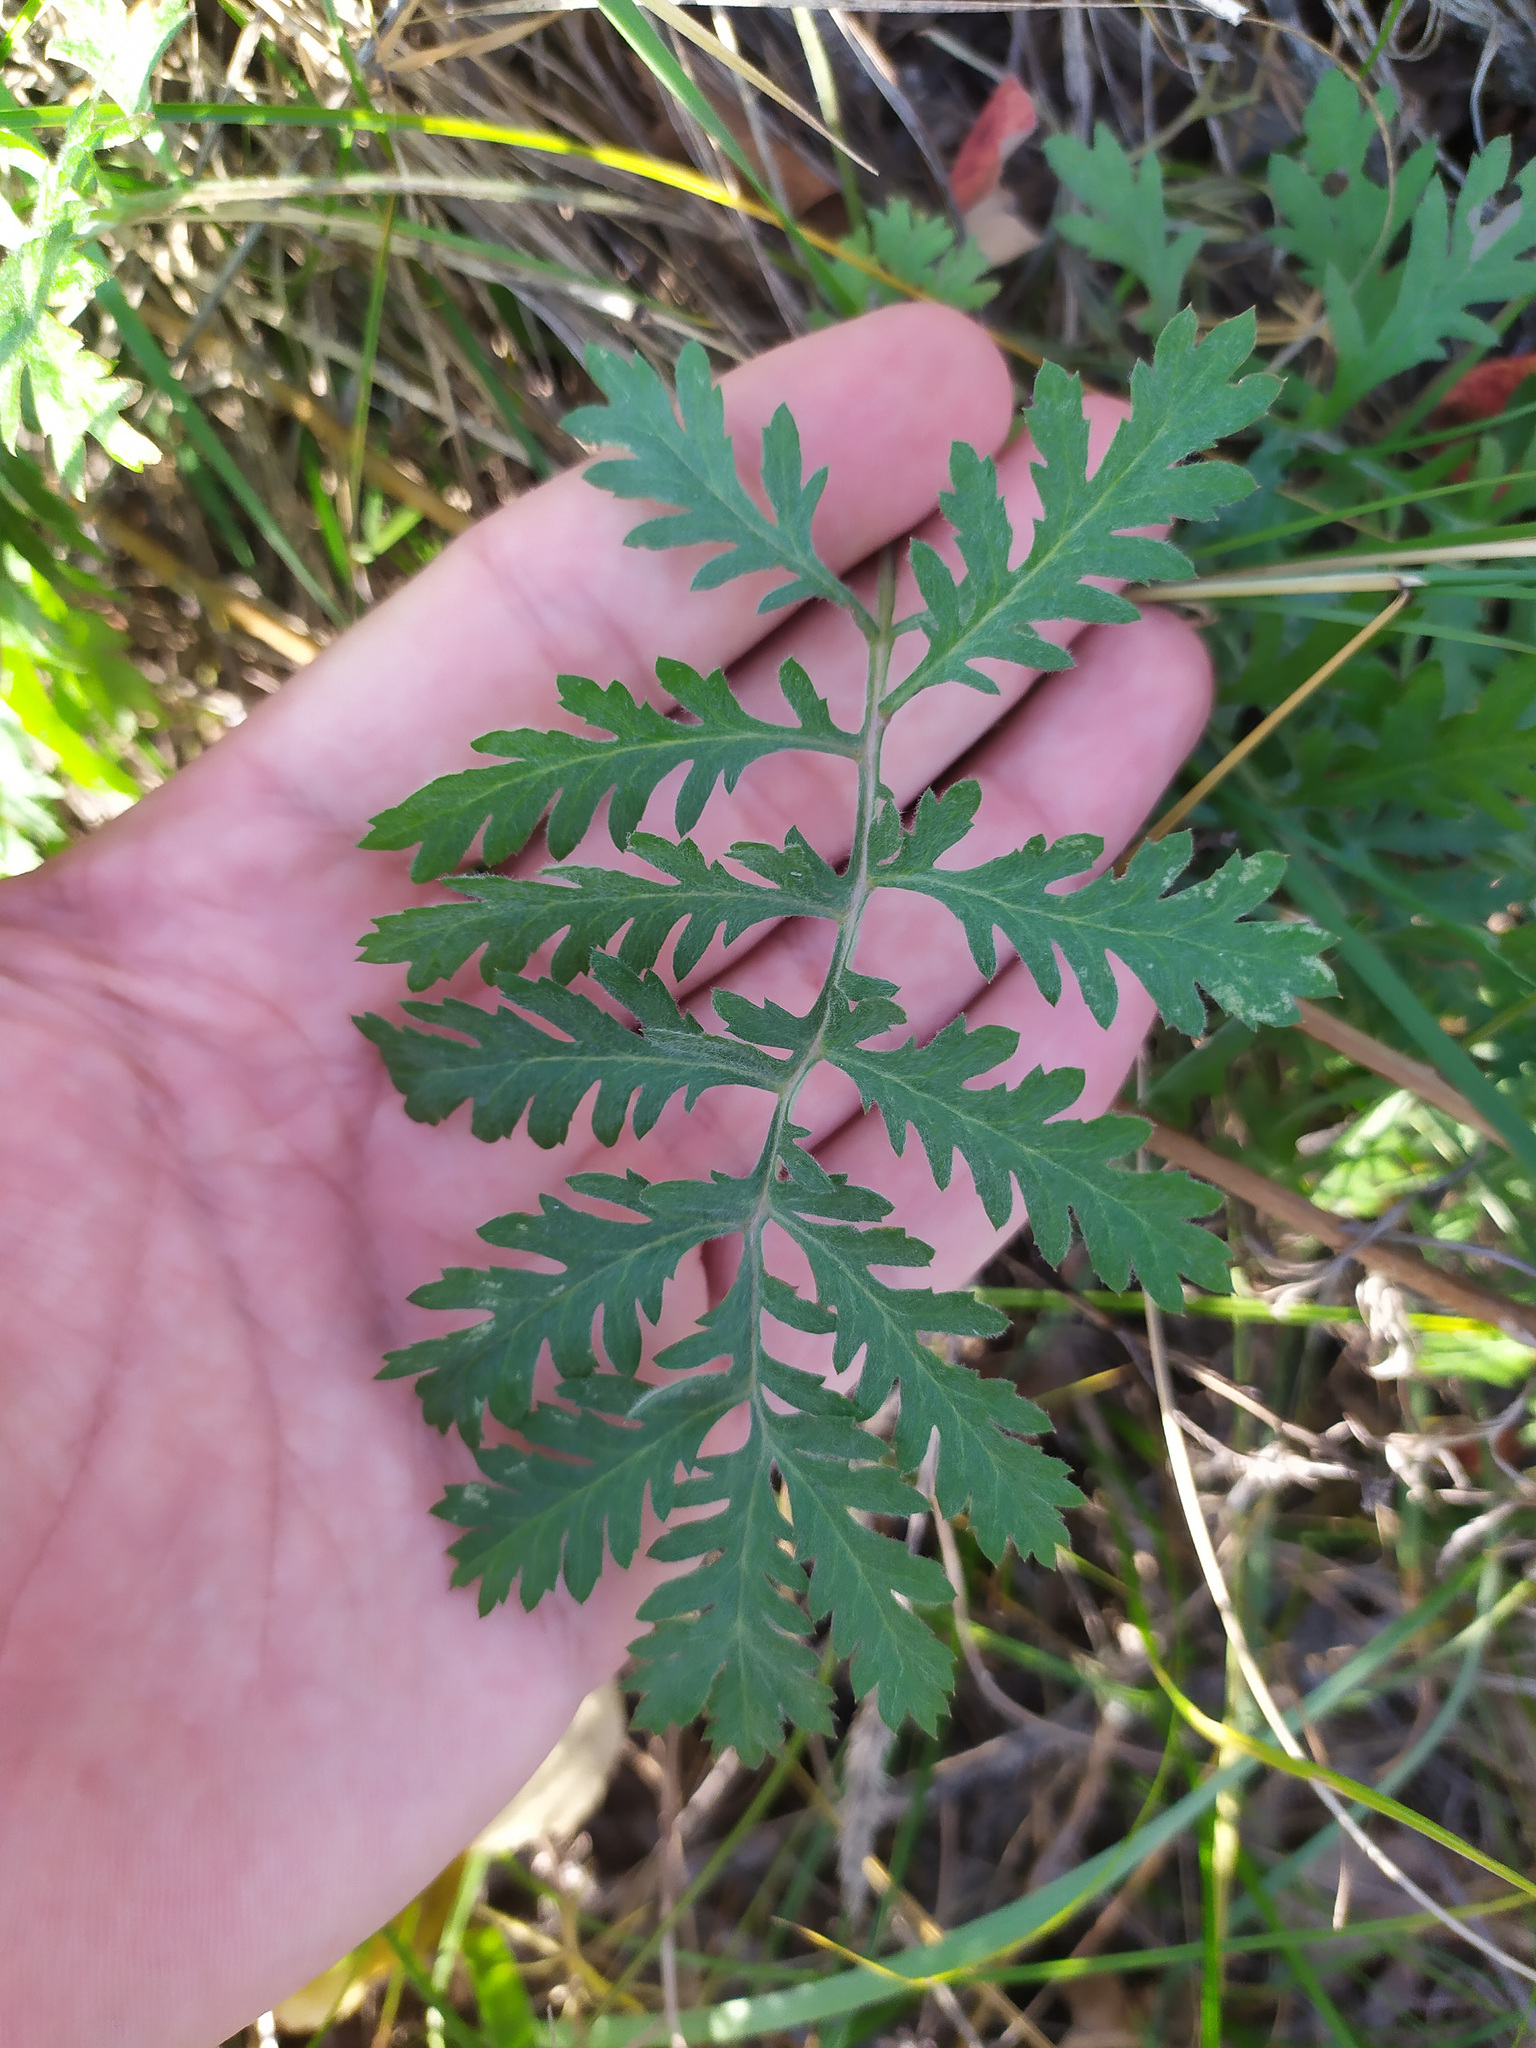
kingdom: Plantae
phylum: Tracheophyta
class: Magnoliopsida
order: Asterales
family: Asteraceae
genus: Artemisia
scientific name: Artemisia tanacetifolia
